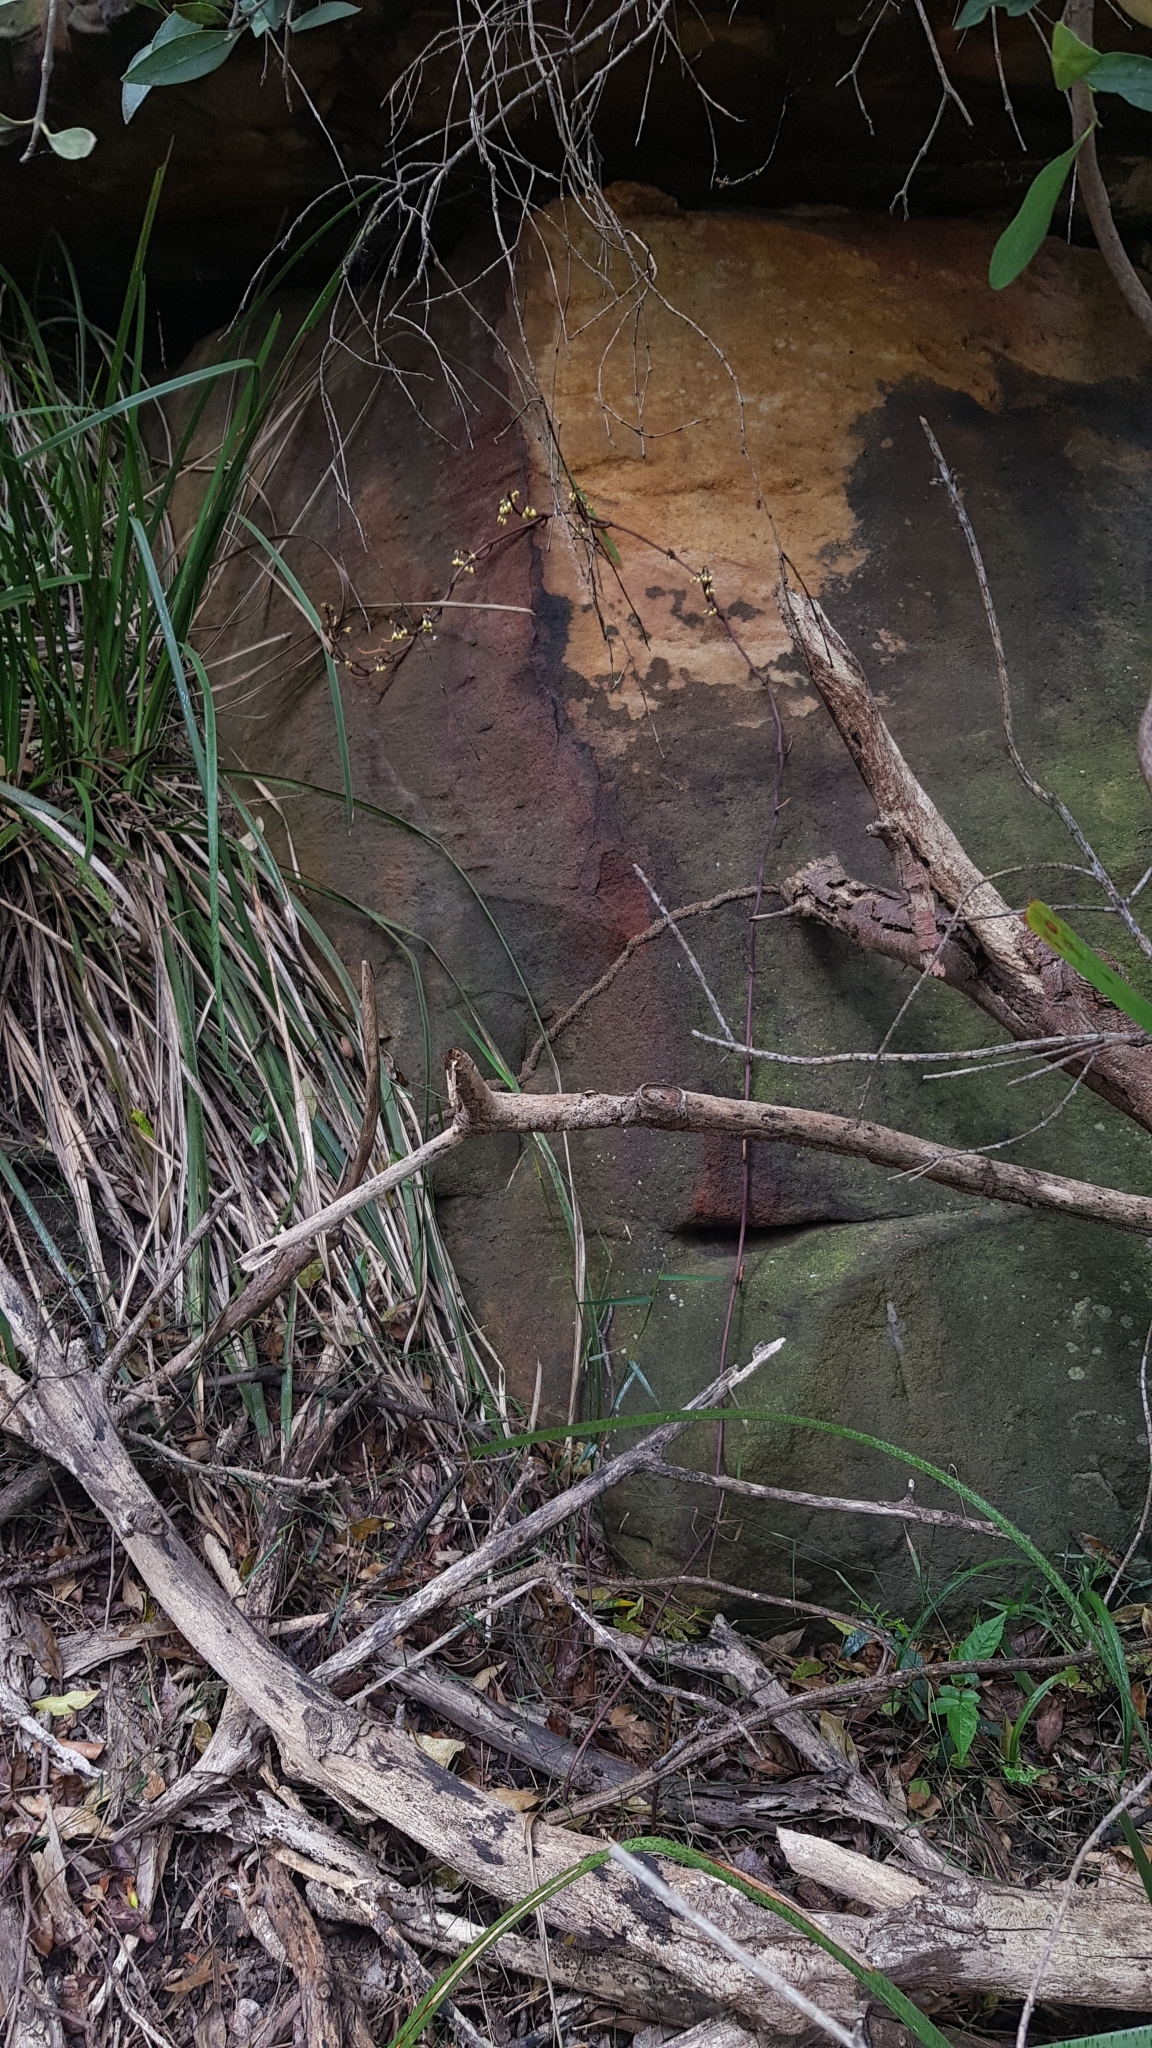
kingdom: Plantae
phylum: Tracheophyta
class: Liliopsida
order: Asparagales
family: Orchidaceae
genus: Erythrorchis
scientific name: Erythrorchis cassythoides
